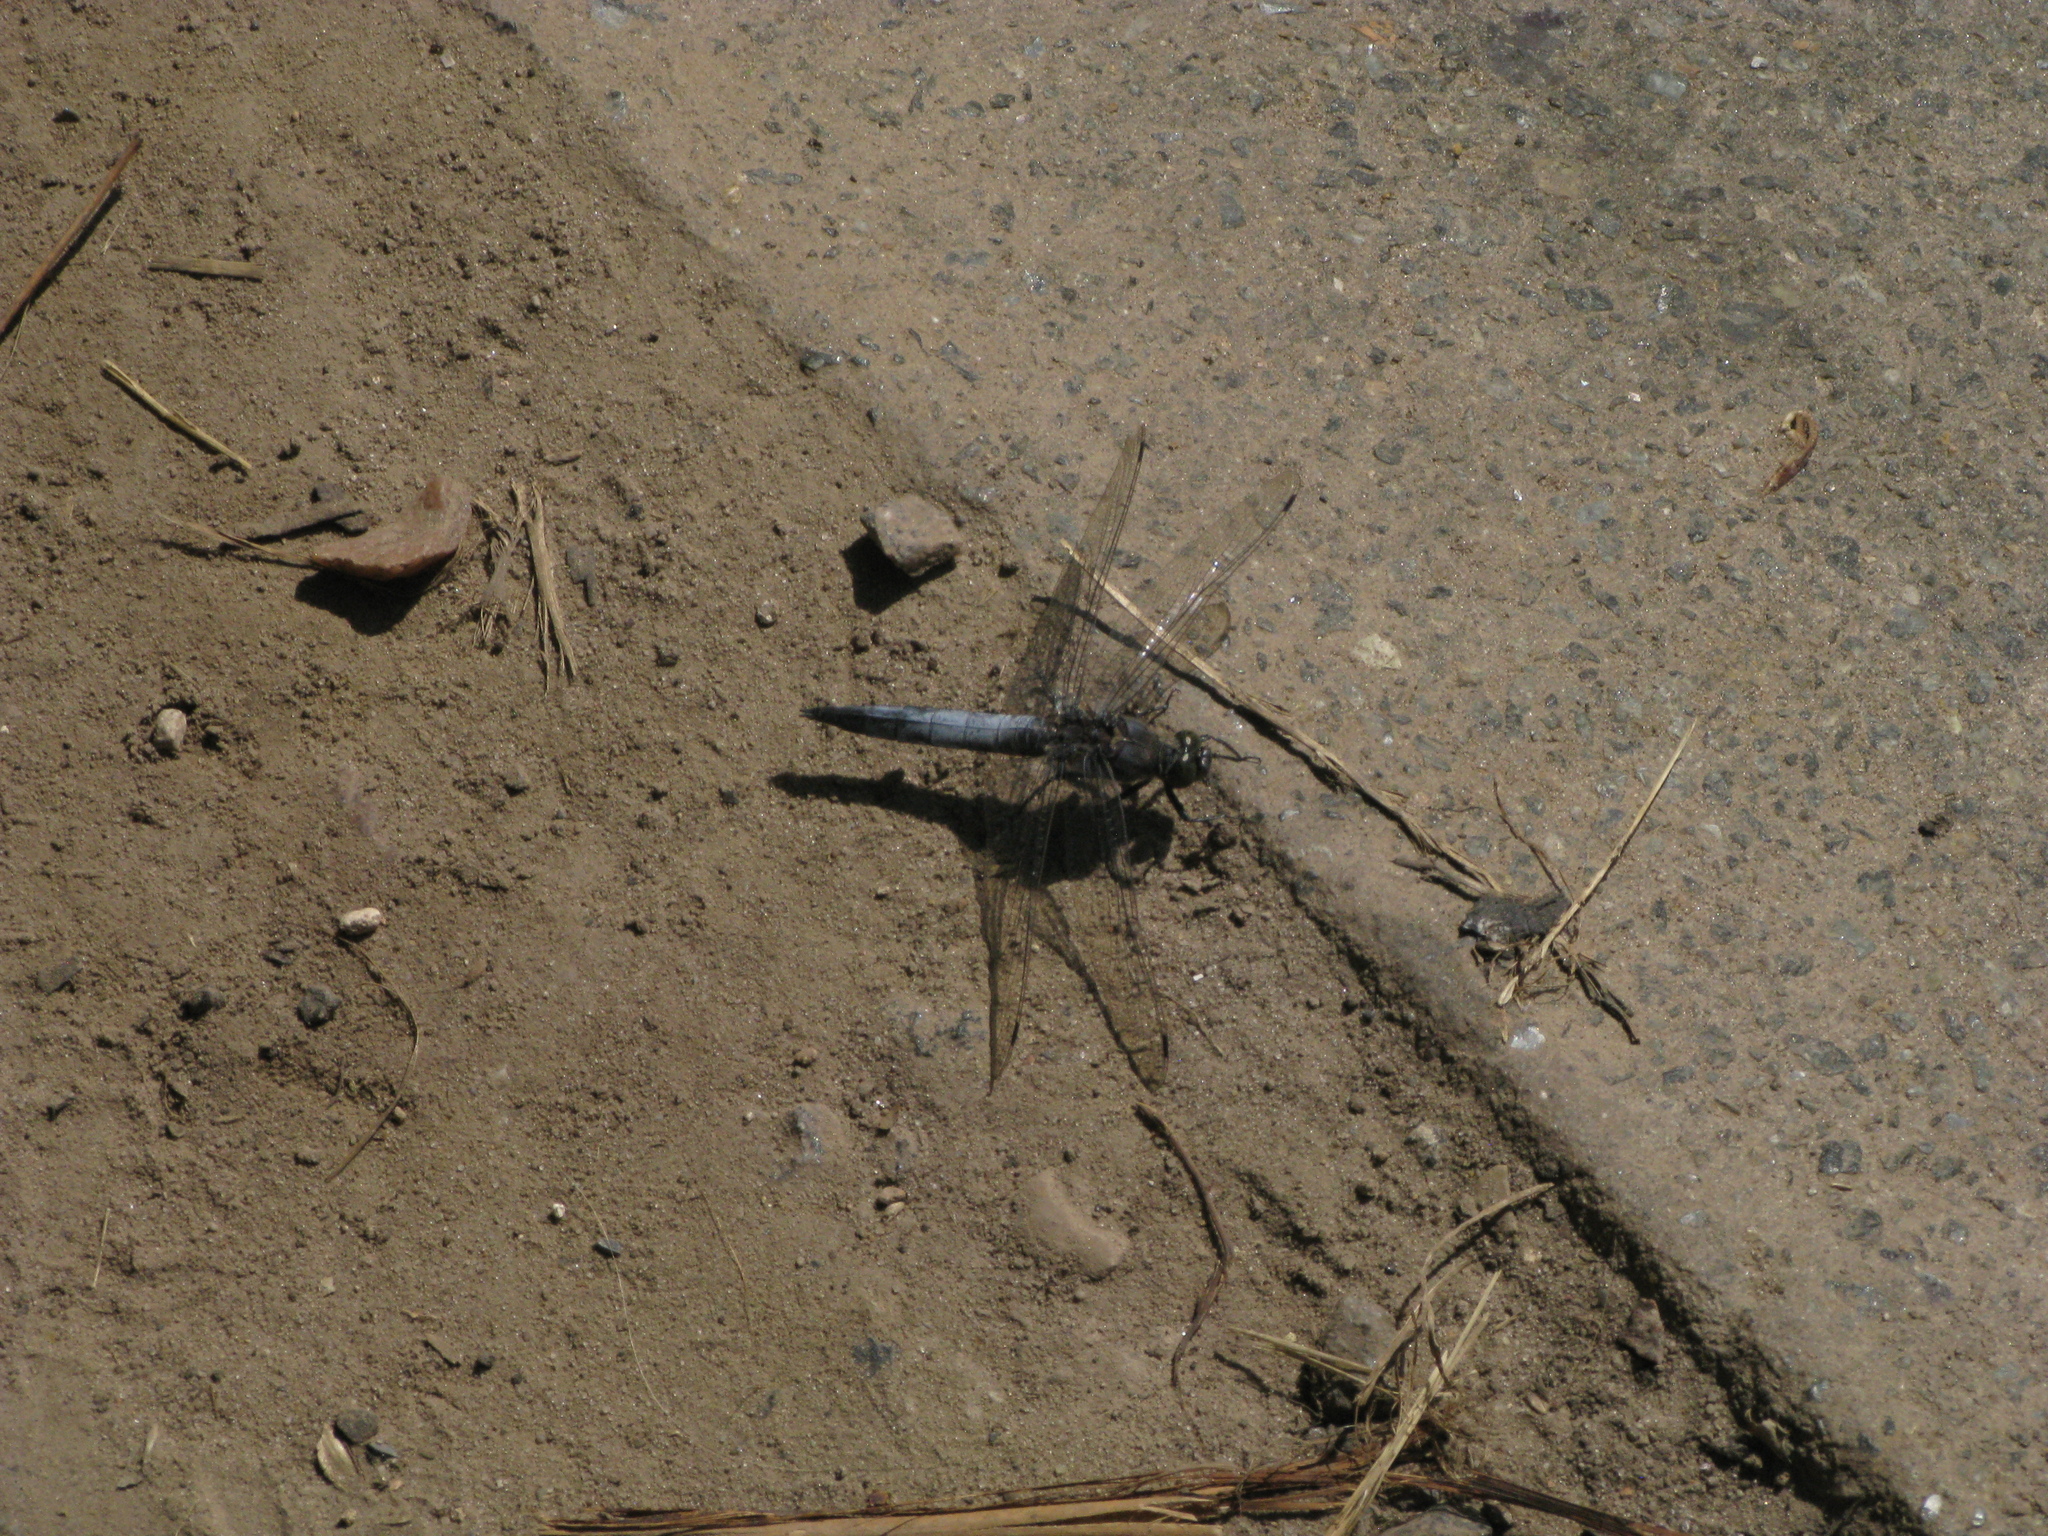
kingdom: Animalia
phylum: Arthropoda
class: Insecta
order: Odonata
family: Libellulidae
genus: Orthetrum
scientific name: Orthetrum cancellatum
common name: Black-tailed skimmer
